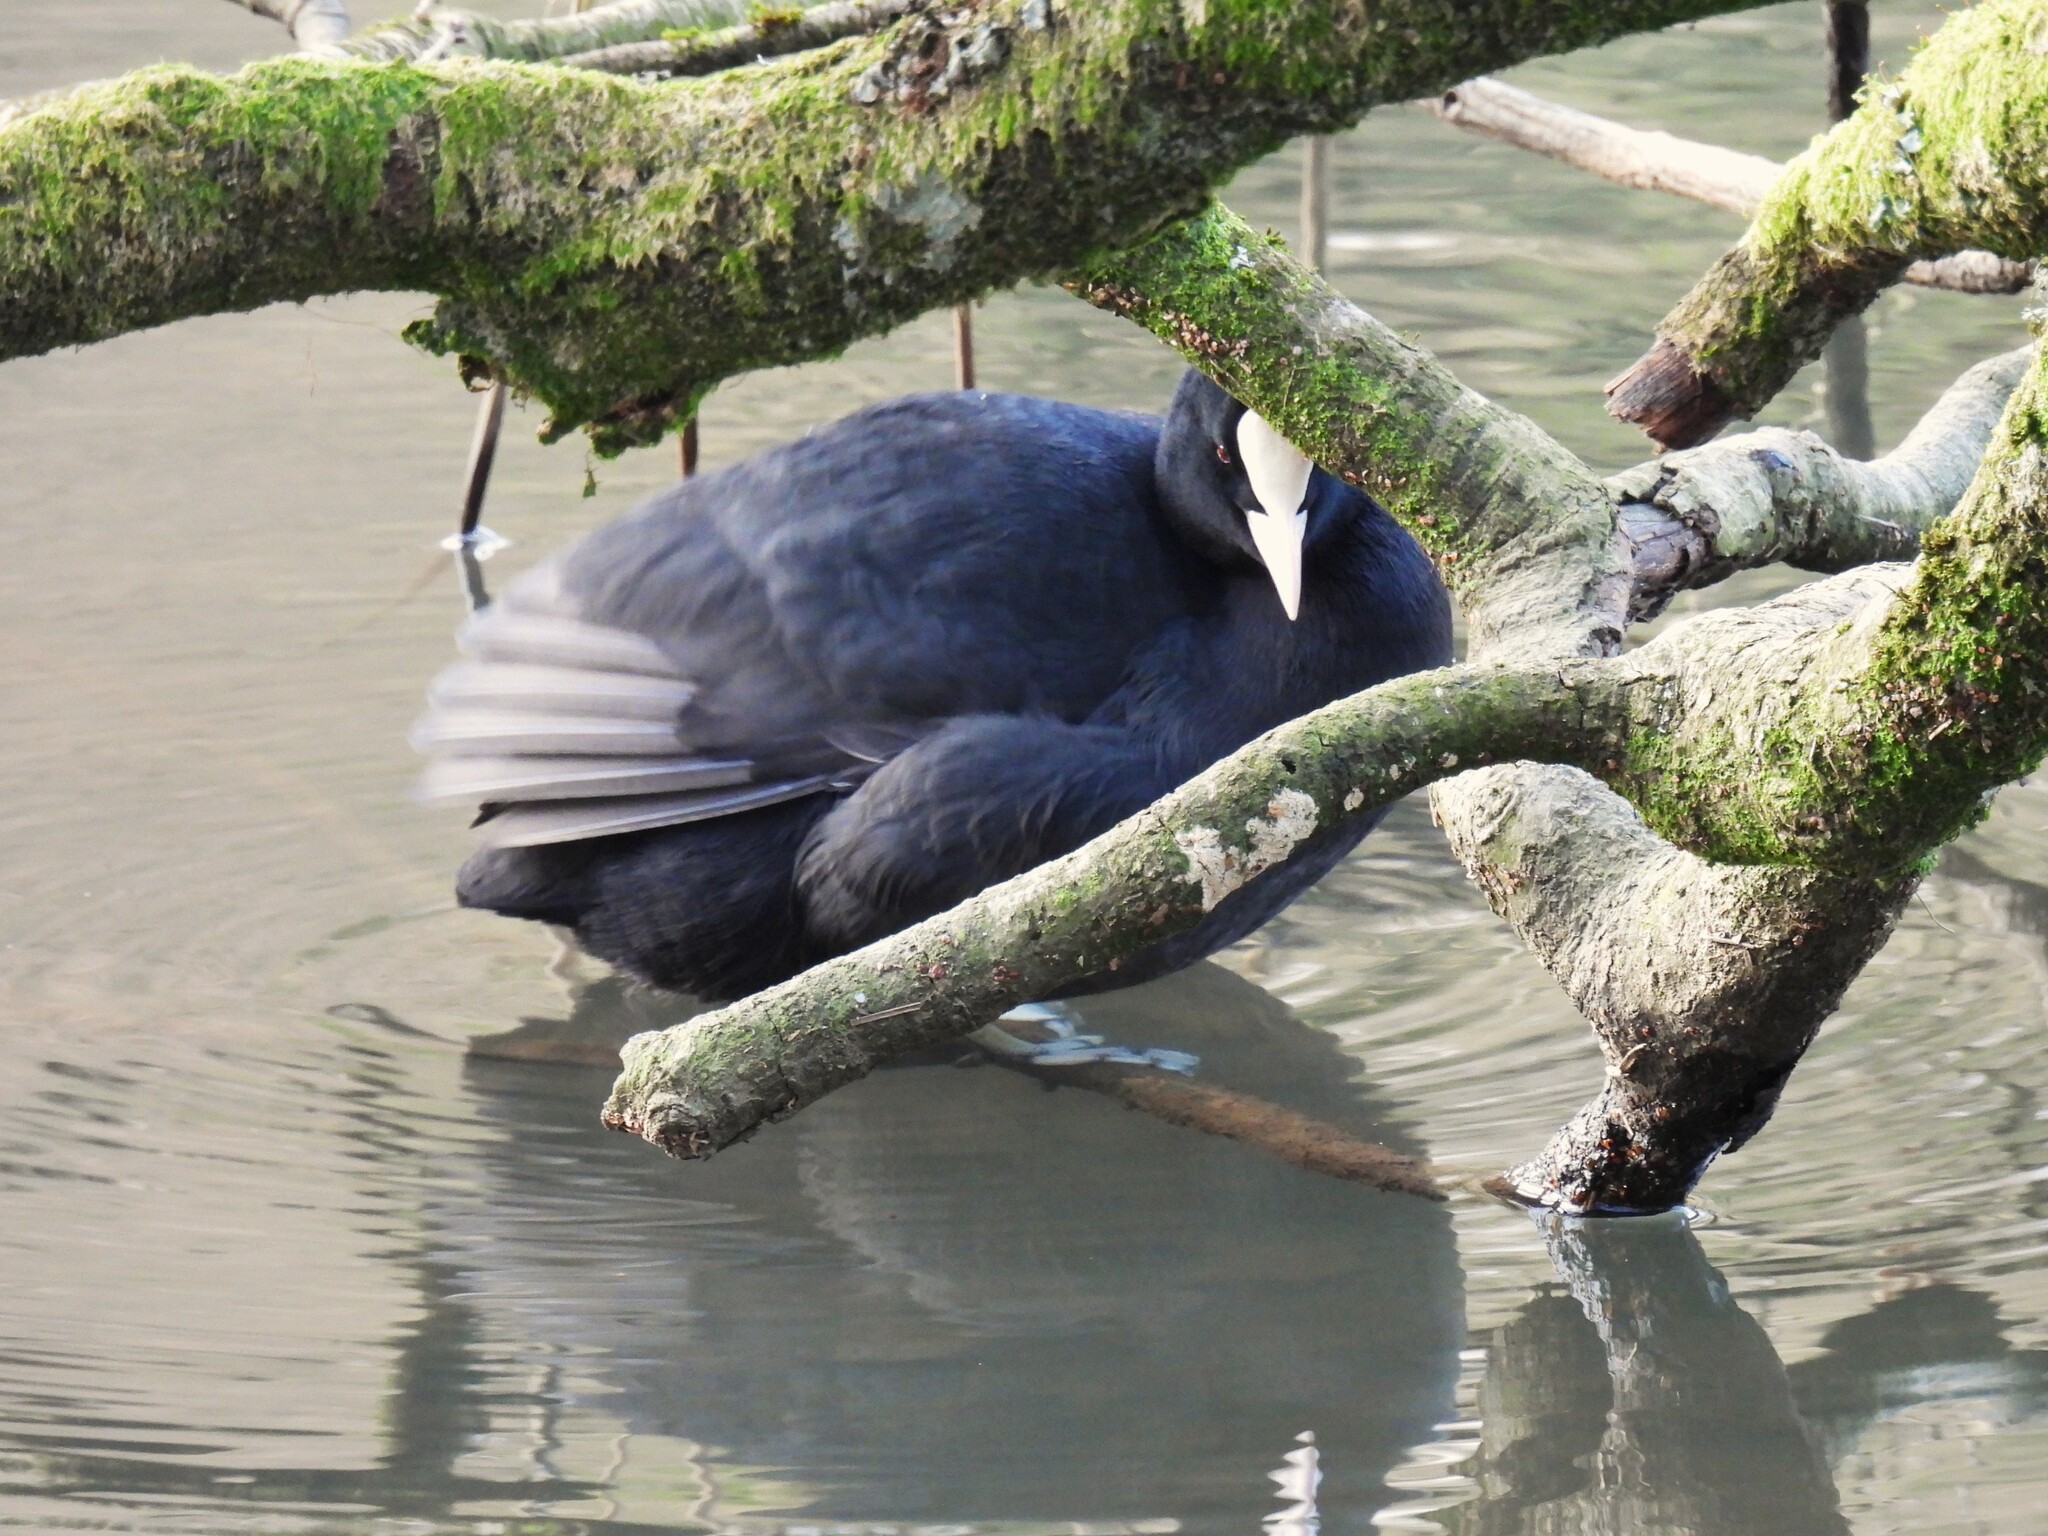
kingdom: Animalia
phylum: Chordata
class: Aves
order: Gruiformes
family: Rallidae
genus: Fulica
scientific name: Fulica atra
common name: Eurasian coot
